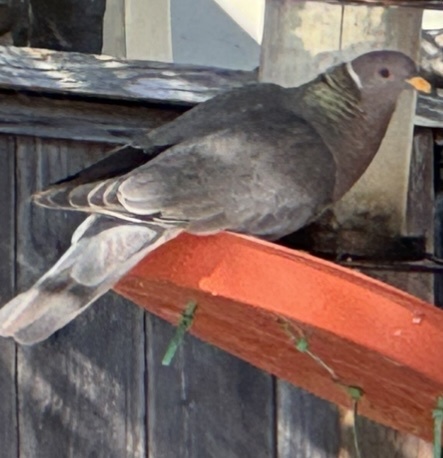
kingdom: Animalia
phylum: Chordata
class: Aves
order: Columbiformes
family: Columbidae
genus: Patagioenas
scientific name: Patagioenas fasciata
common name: Band-tailed pigeon
